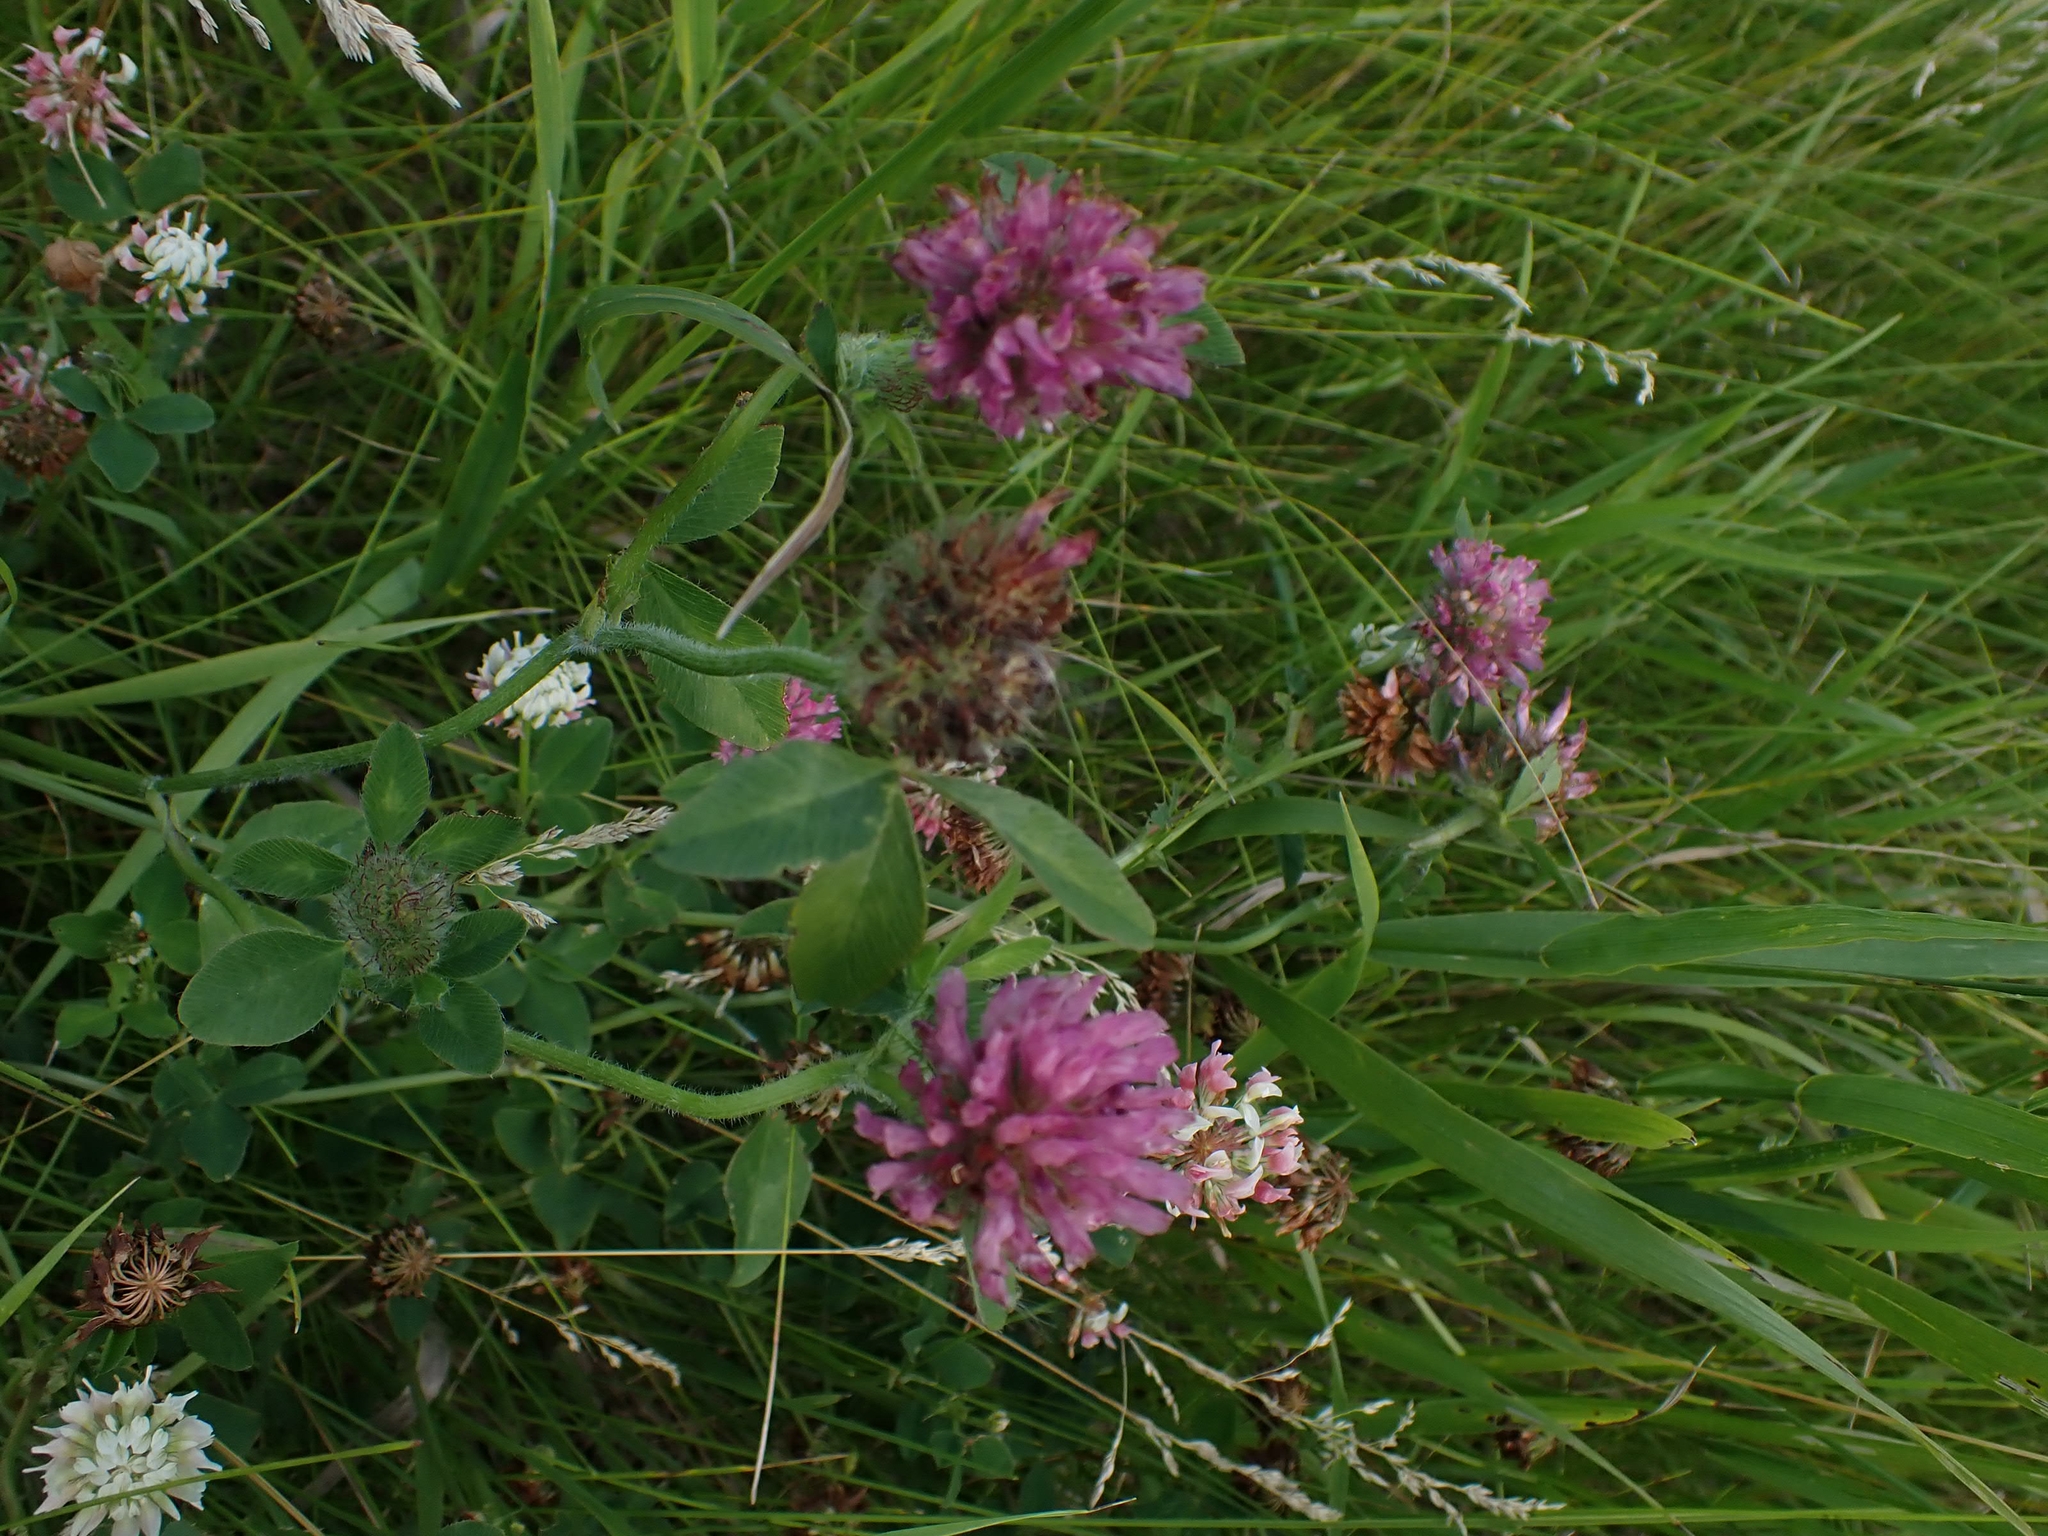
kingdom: Plantae
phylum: Tracheophyta
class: Magnoliopsida
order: Fabales
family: Fabaceae
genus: Trifolium
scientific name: Trifolium pratense
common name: Red clover
